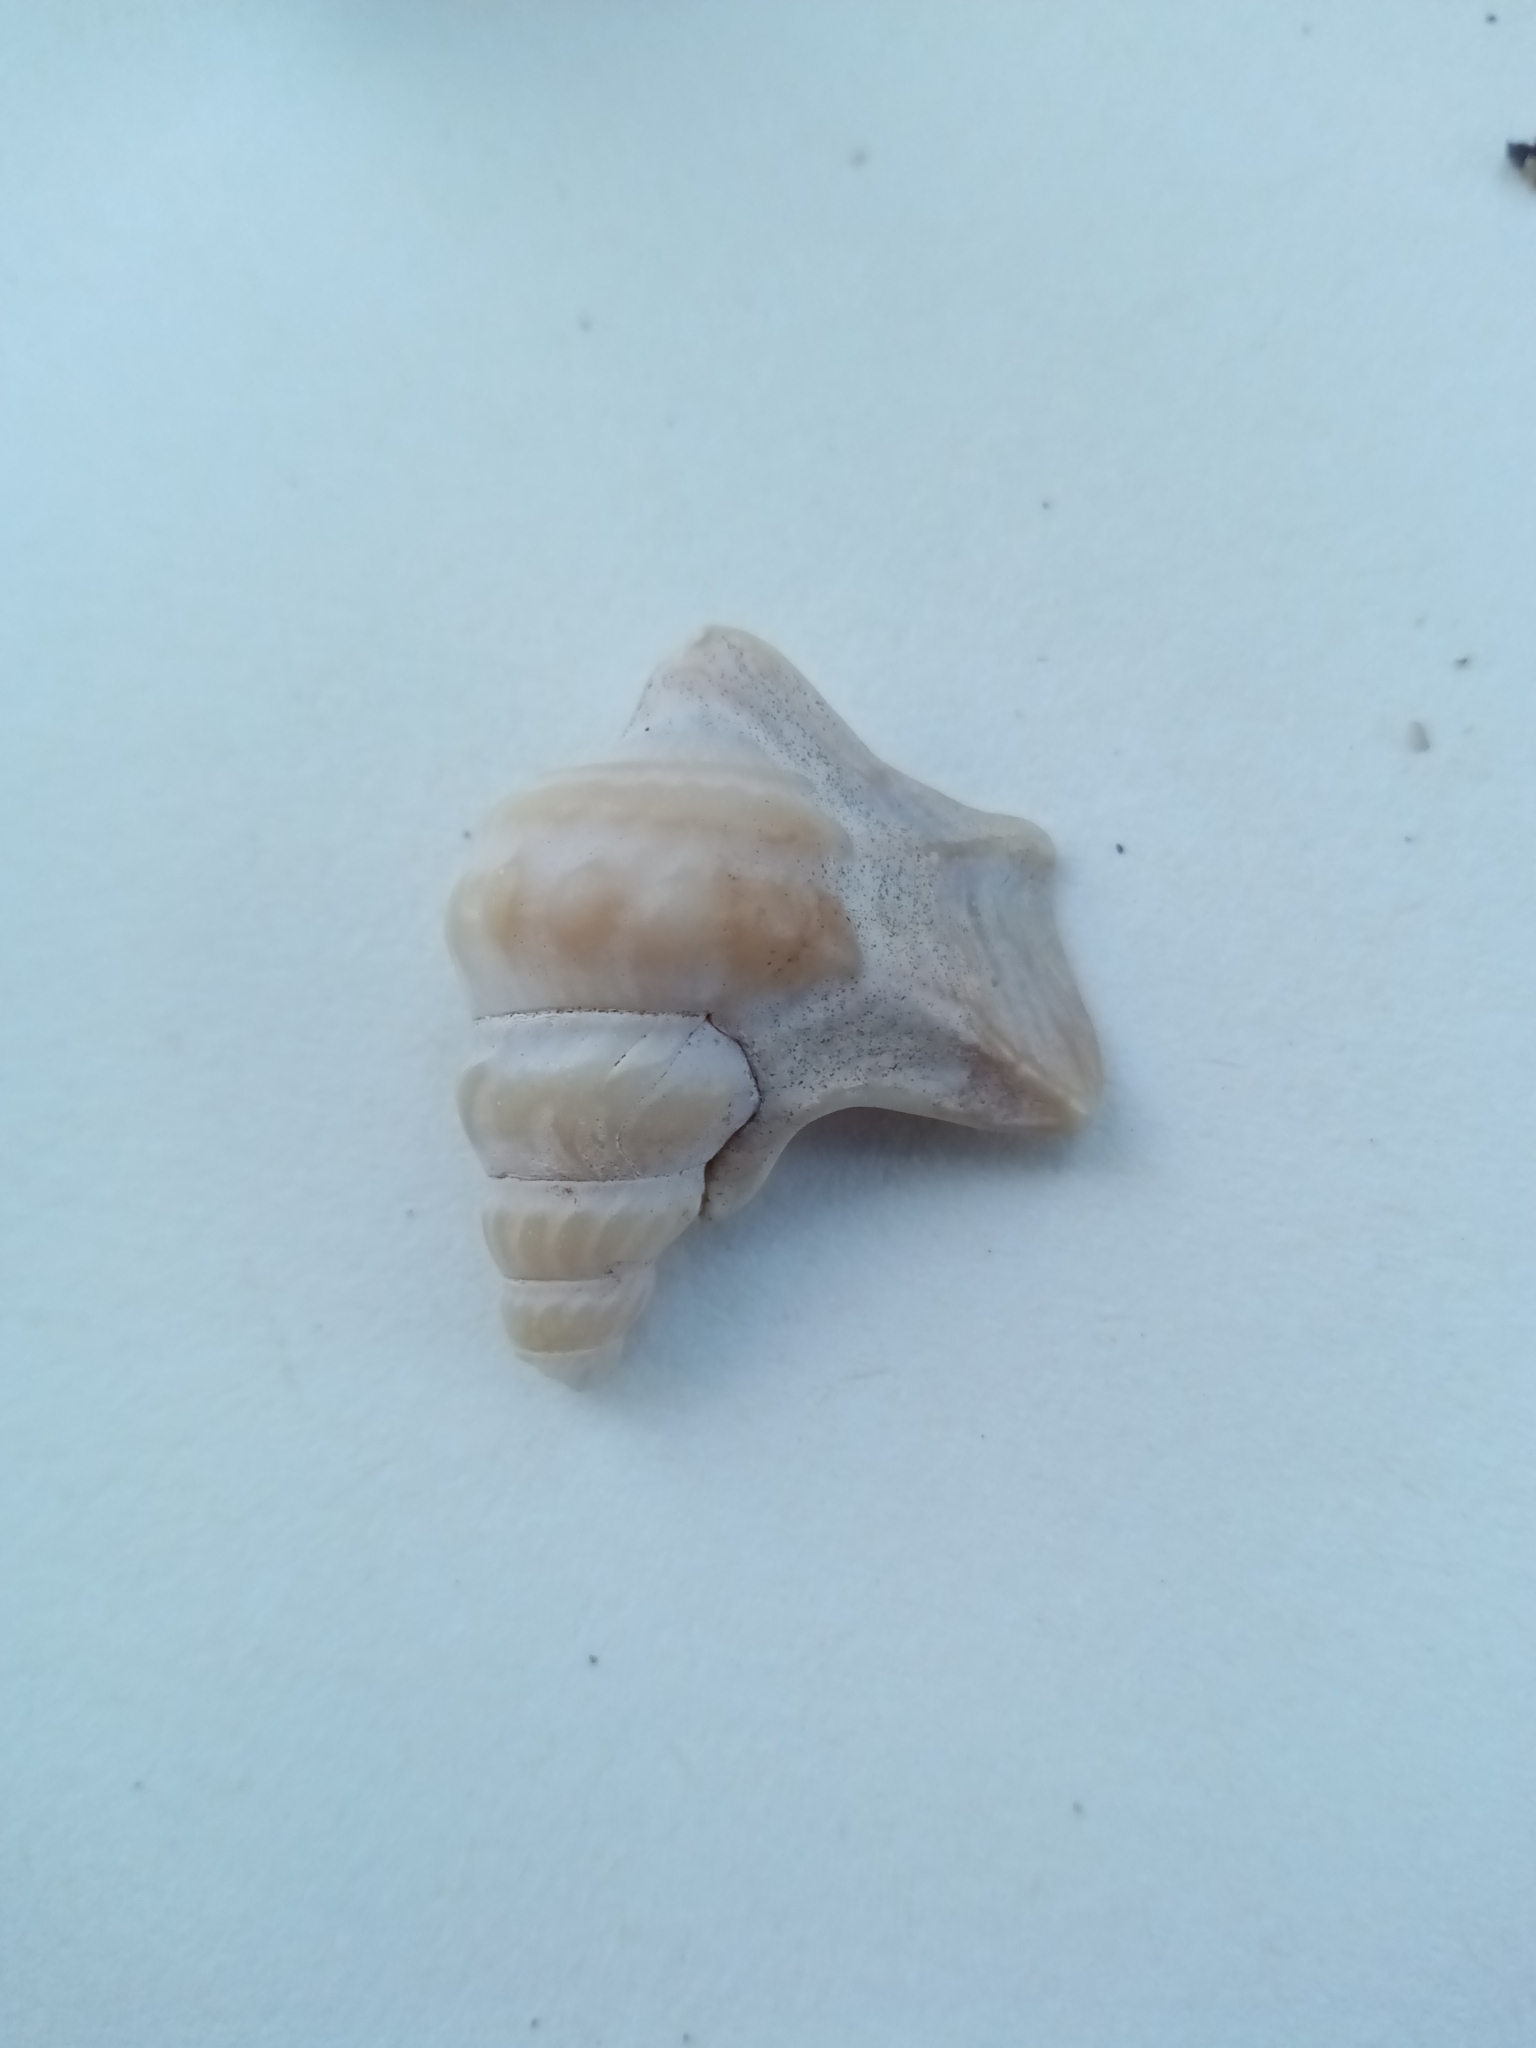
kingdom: Animalia
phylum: Mollusca
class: Gastropoda
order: Littorinimorpha
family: Aporrhaidae
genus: Aporrhais
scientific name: Aporrhais pespelecani
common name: Common pelican’s foot
